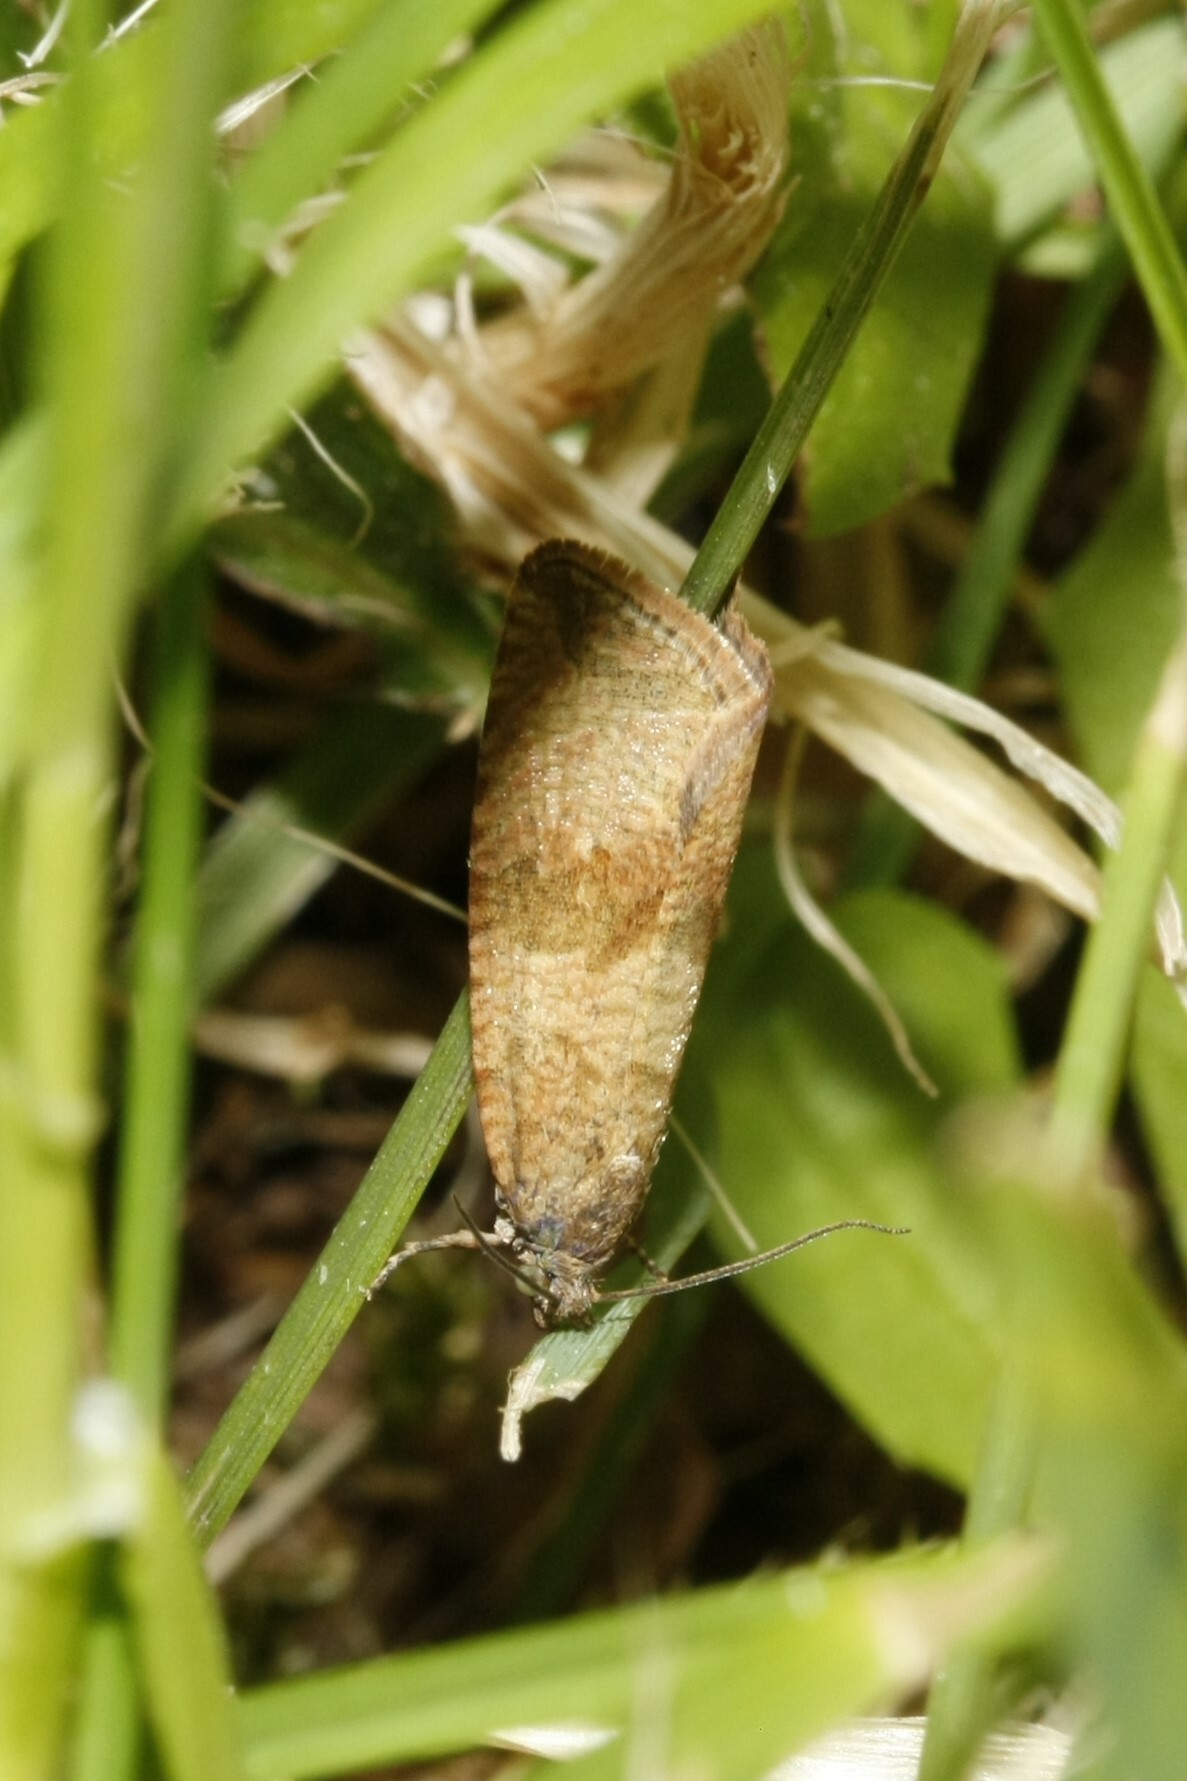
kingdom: Animalia
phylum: Arthropoda
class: Insecta
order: Lepidoptera
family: Tortricidae
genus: Celypha
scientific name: Celypha striana
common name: Barred marble
